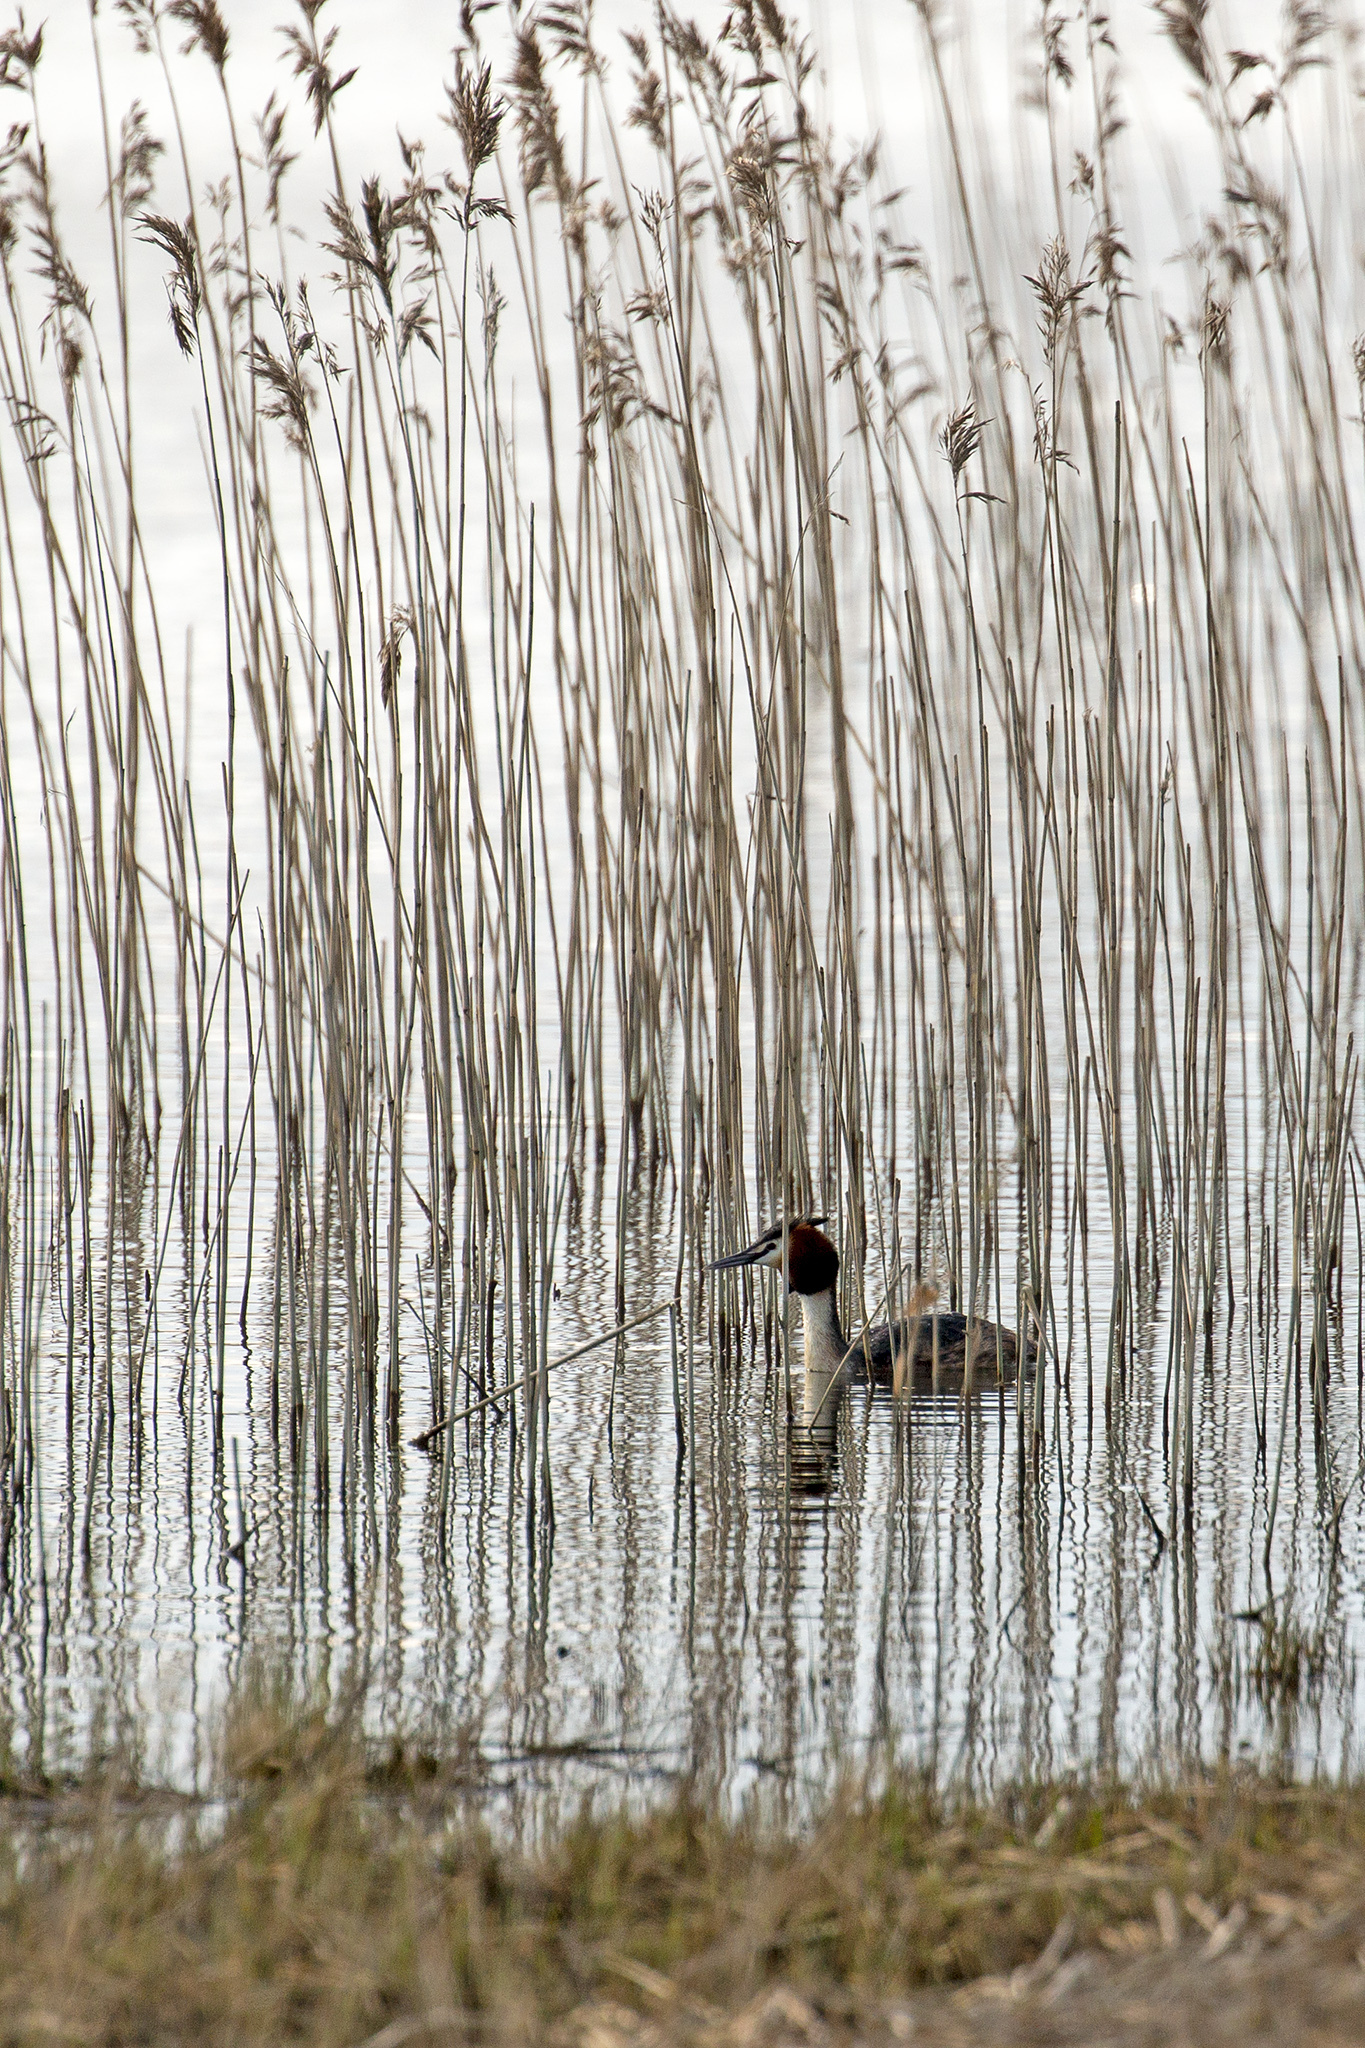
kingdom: Animalia
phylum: Chordata
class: Aves
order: Podicipediformes
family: Podicipedidae
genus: Podiceps
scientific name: Podiceps cristatus
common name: Great crested grebe
